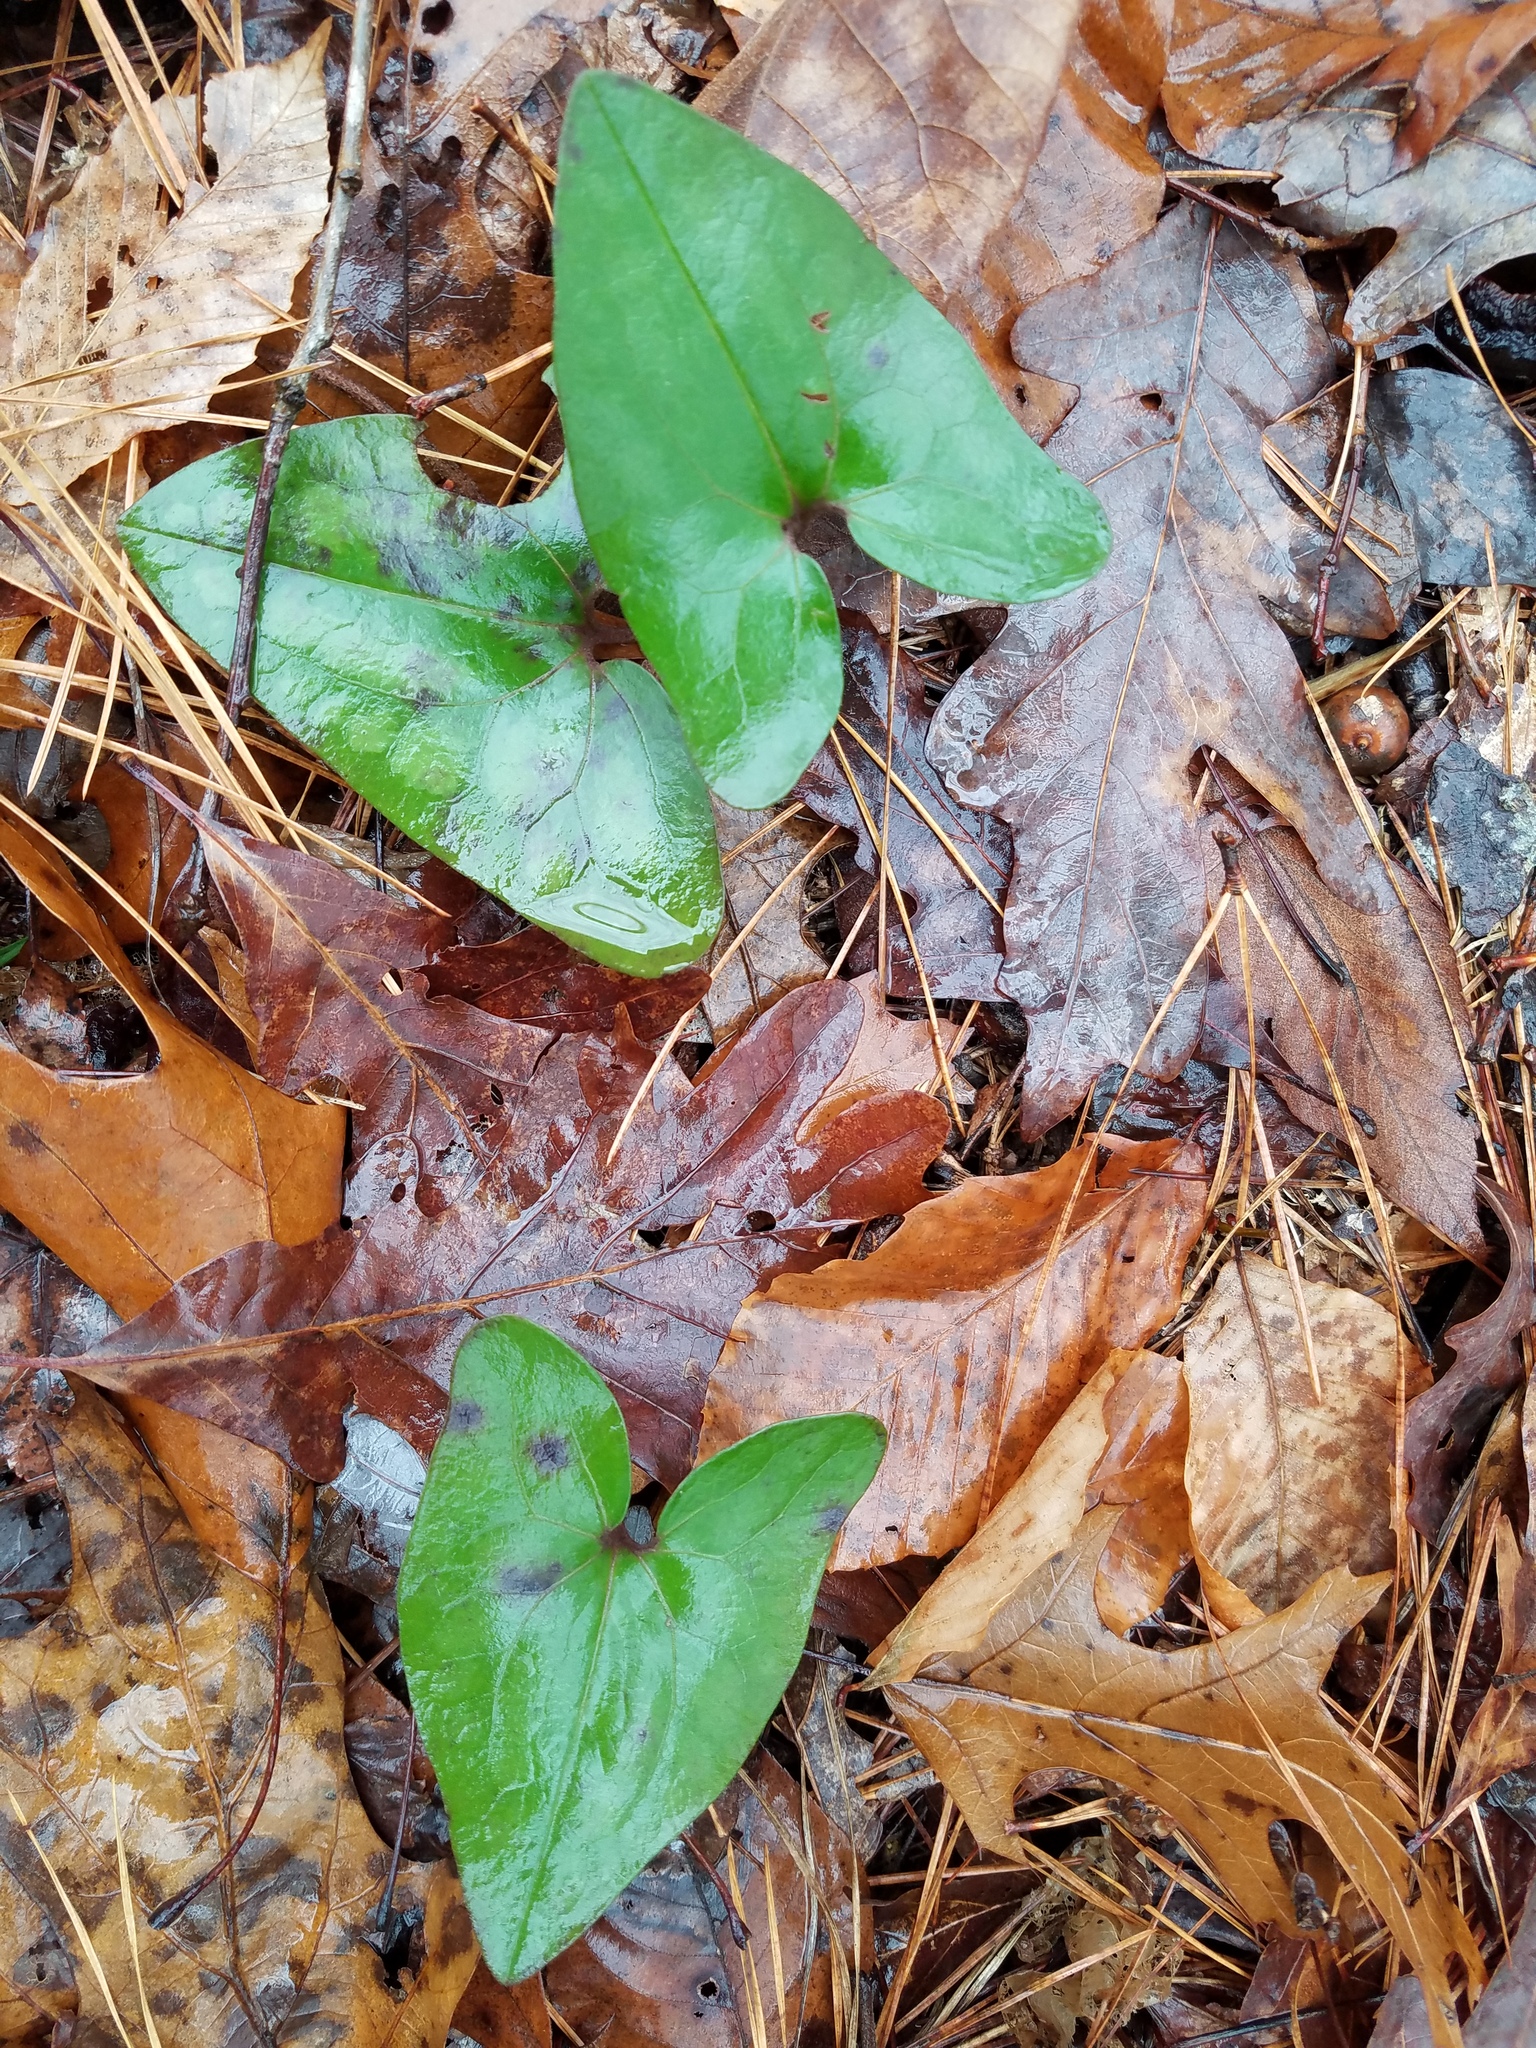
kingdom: Plantae
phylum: Tracheophyta
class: Magnoliopsida
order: Piperales
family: Aristolochiaceae
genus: Hexastylis
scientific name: Hexastylis arifolia
